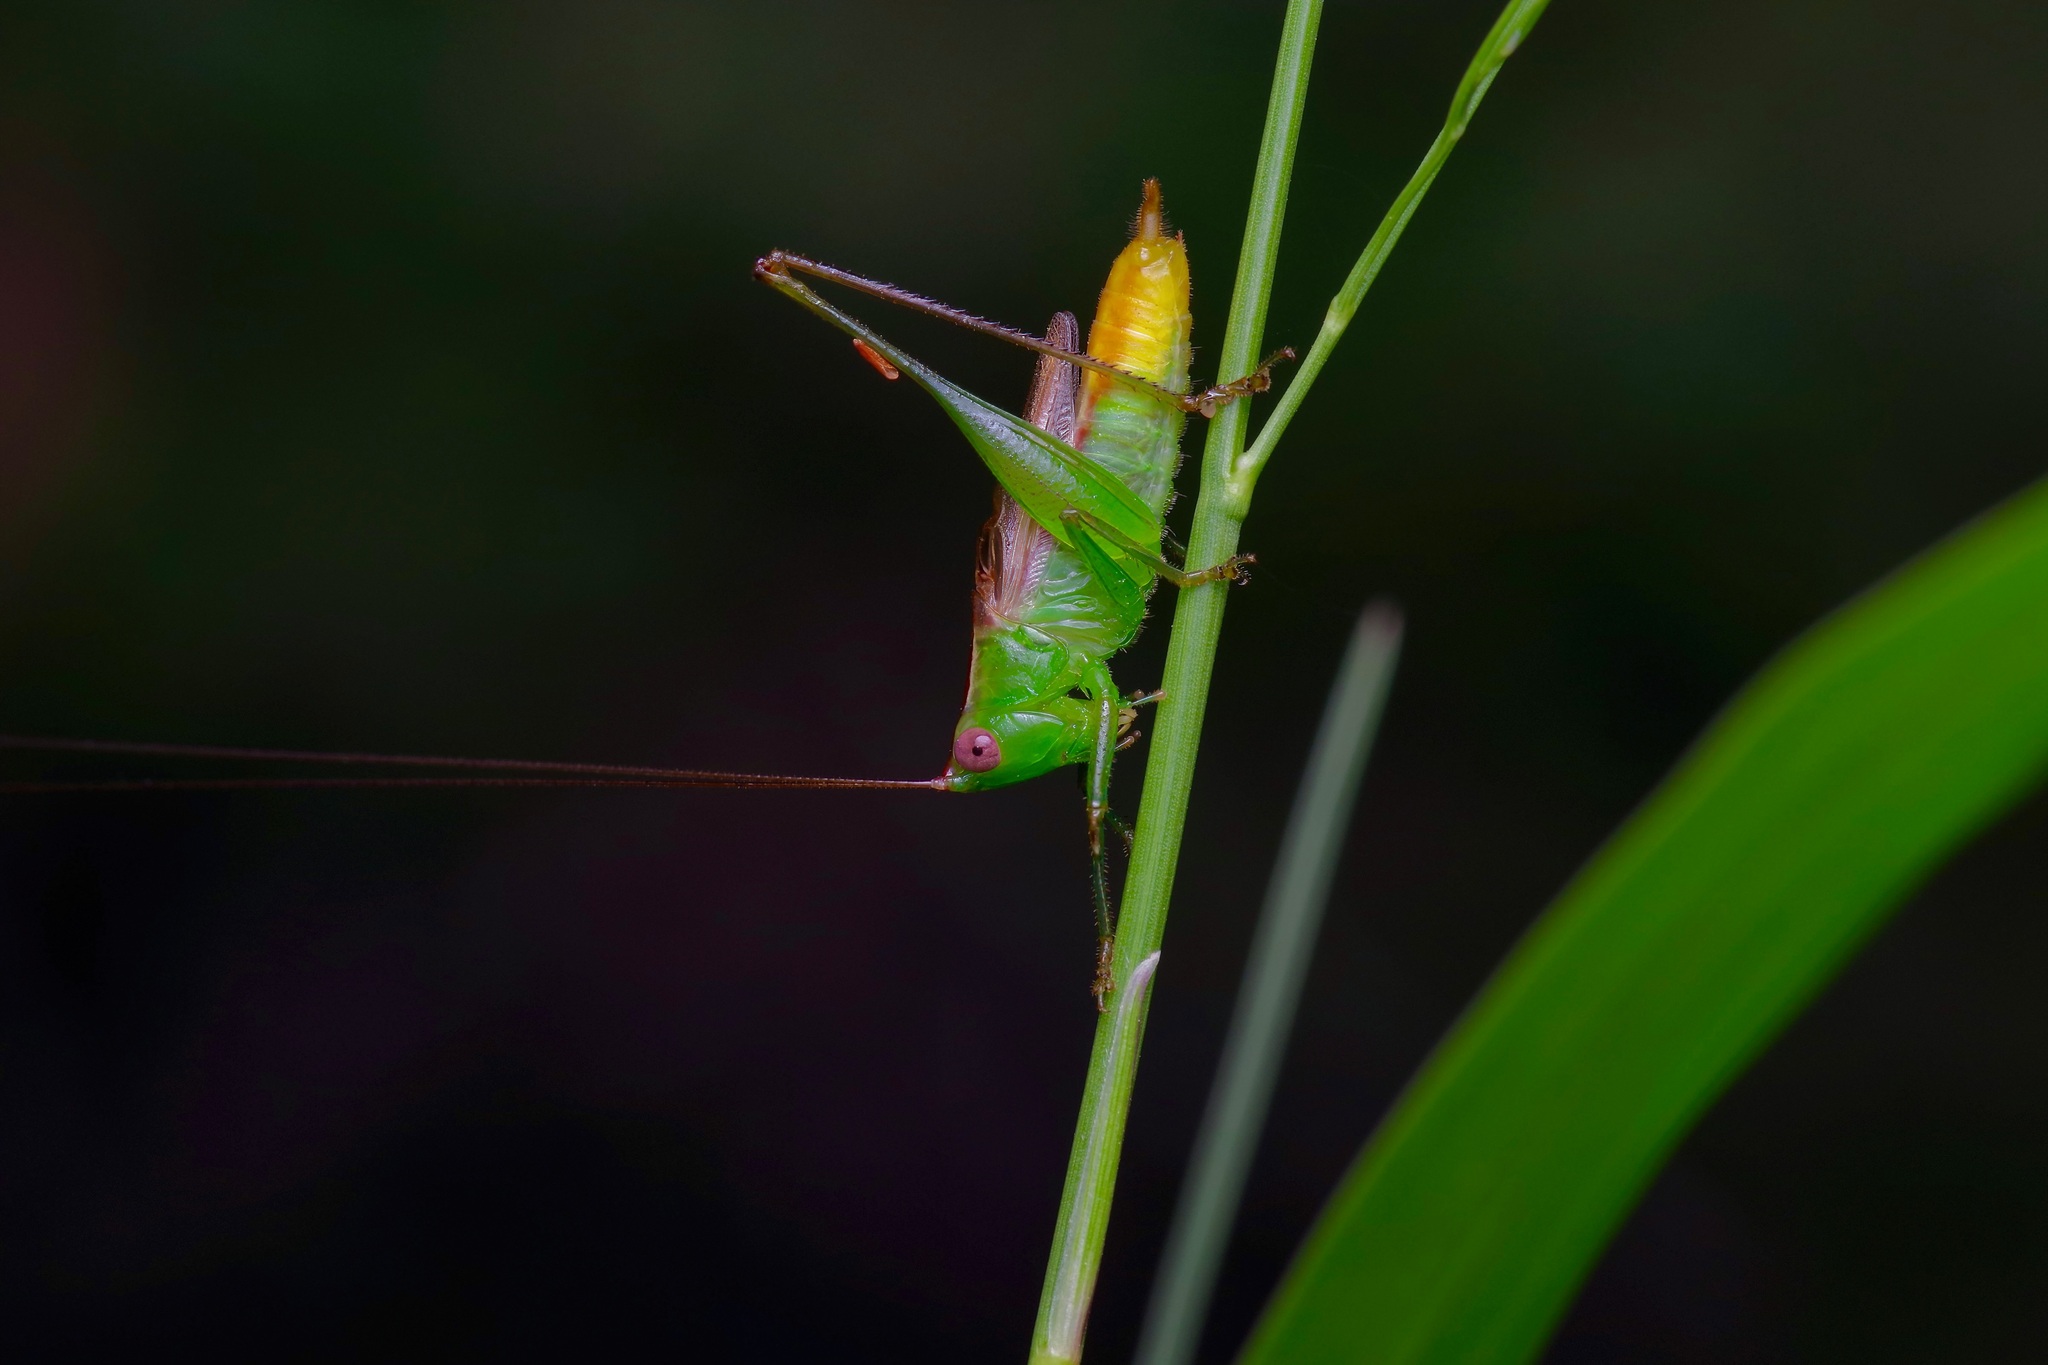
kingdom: Animalia
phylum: Arthropoda
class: Insecta
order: Orthoptera
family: Tettigoniidae
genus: Conocephalus
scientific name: Conocephalus brevipennis
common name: Short-winged meadow katydid
